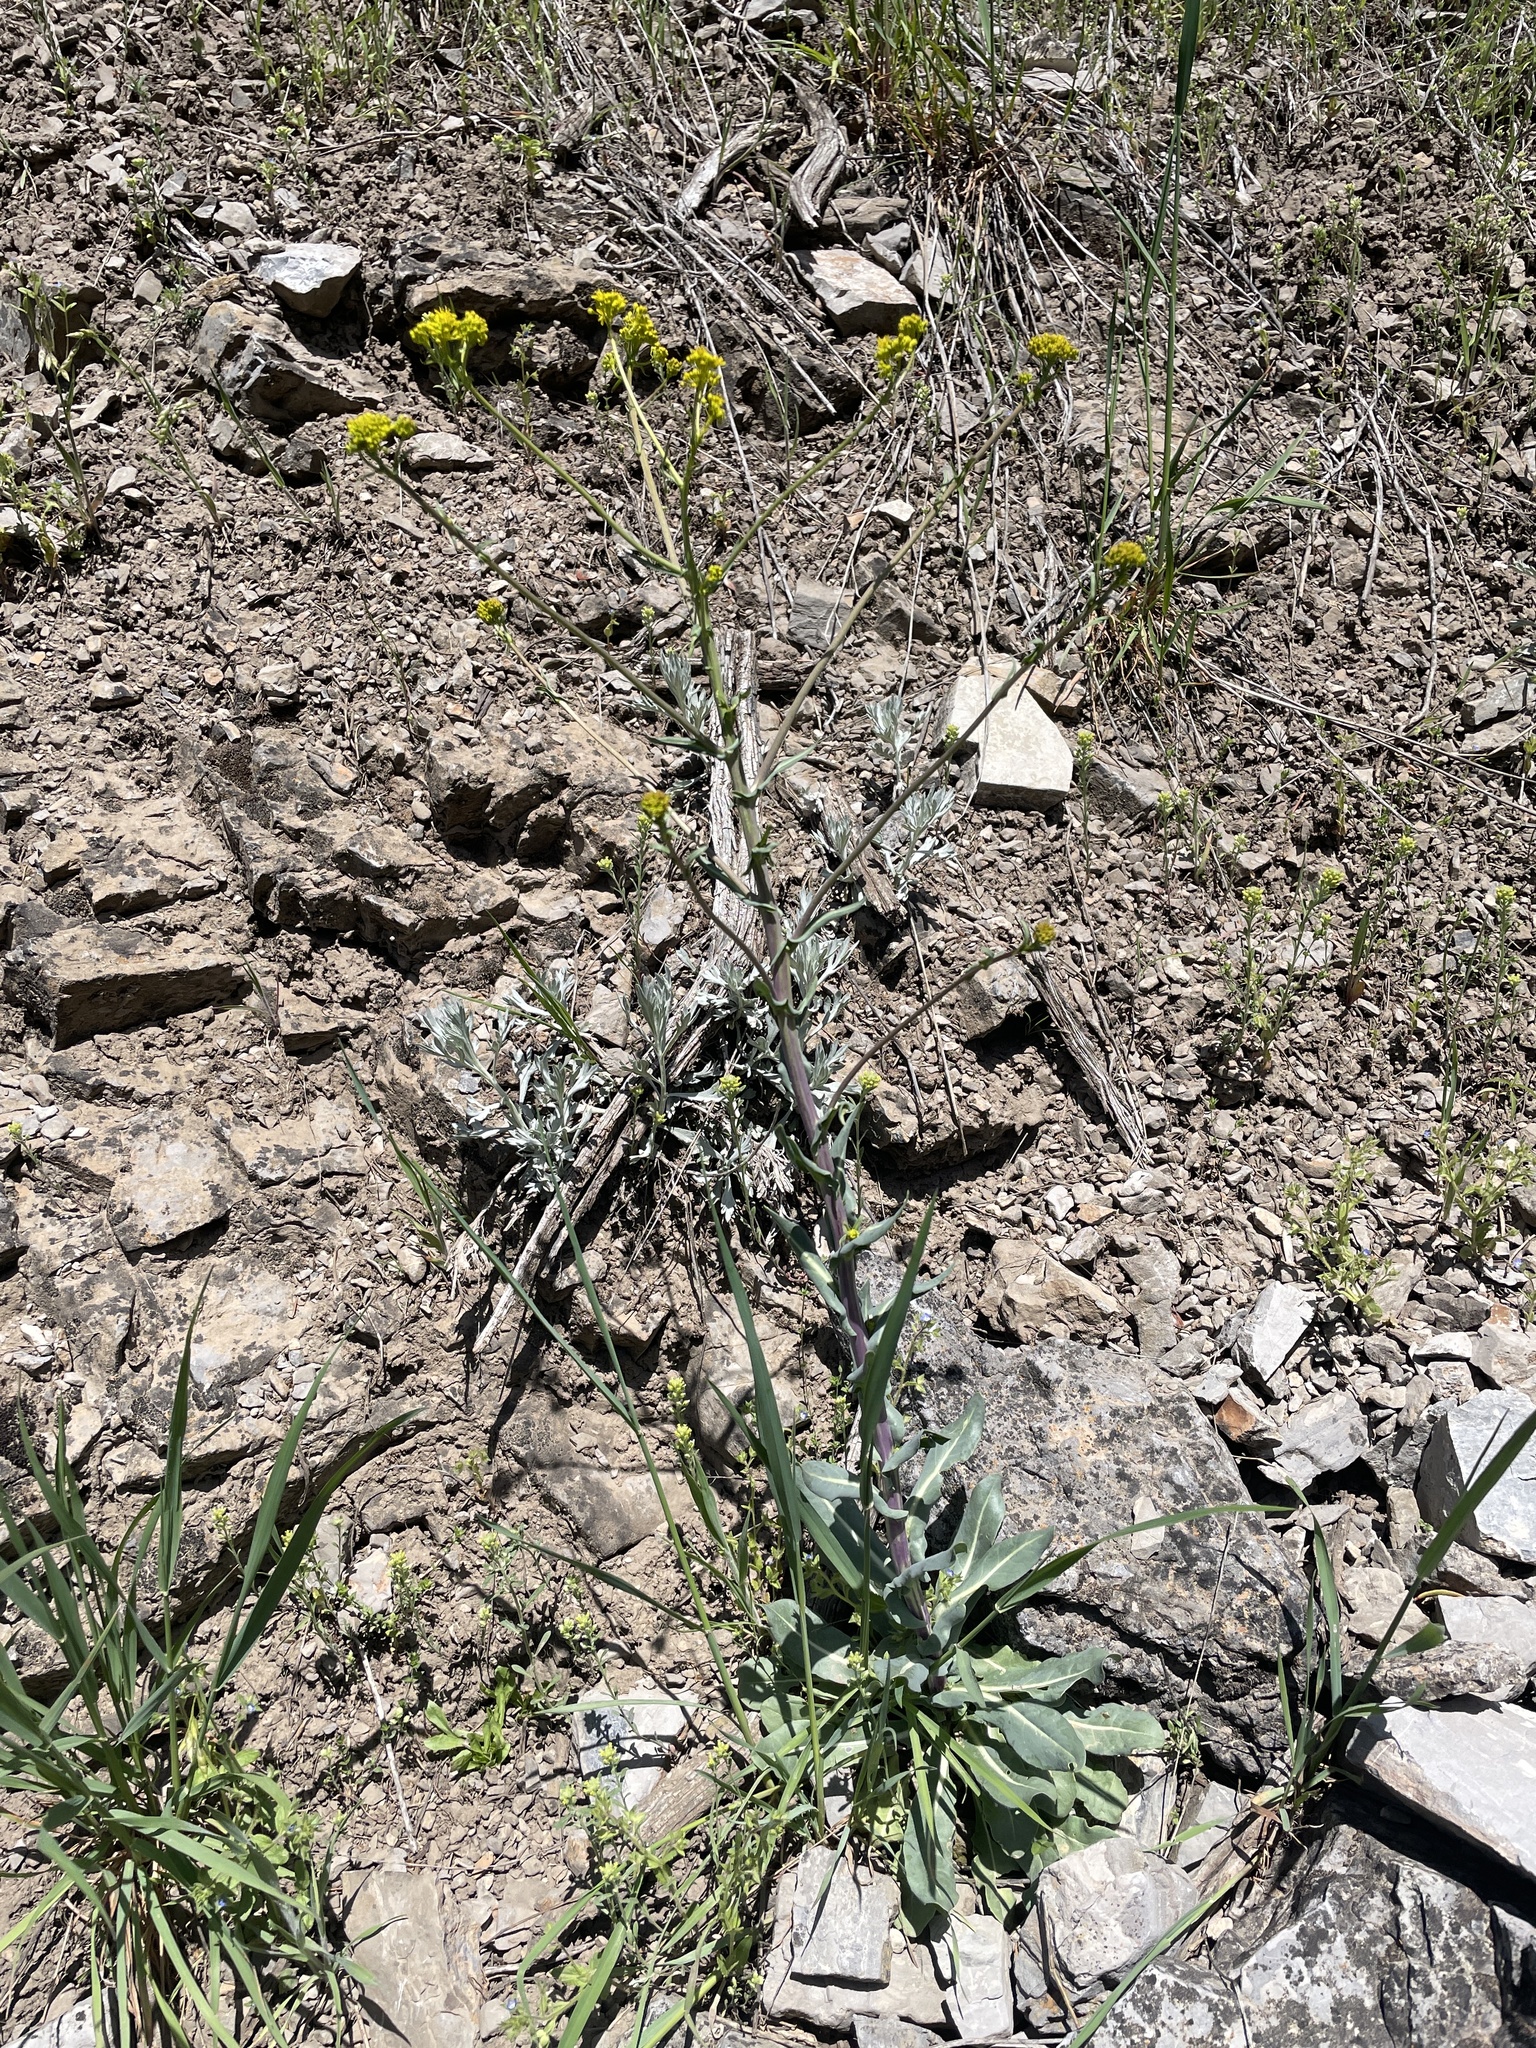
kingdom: Plantae
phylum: Tracheophyta
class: Magnoliopsida
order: Brassicales
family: Brassicaceae
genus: Isatis
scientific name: Isatis tinctoria
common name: Woad
